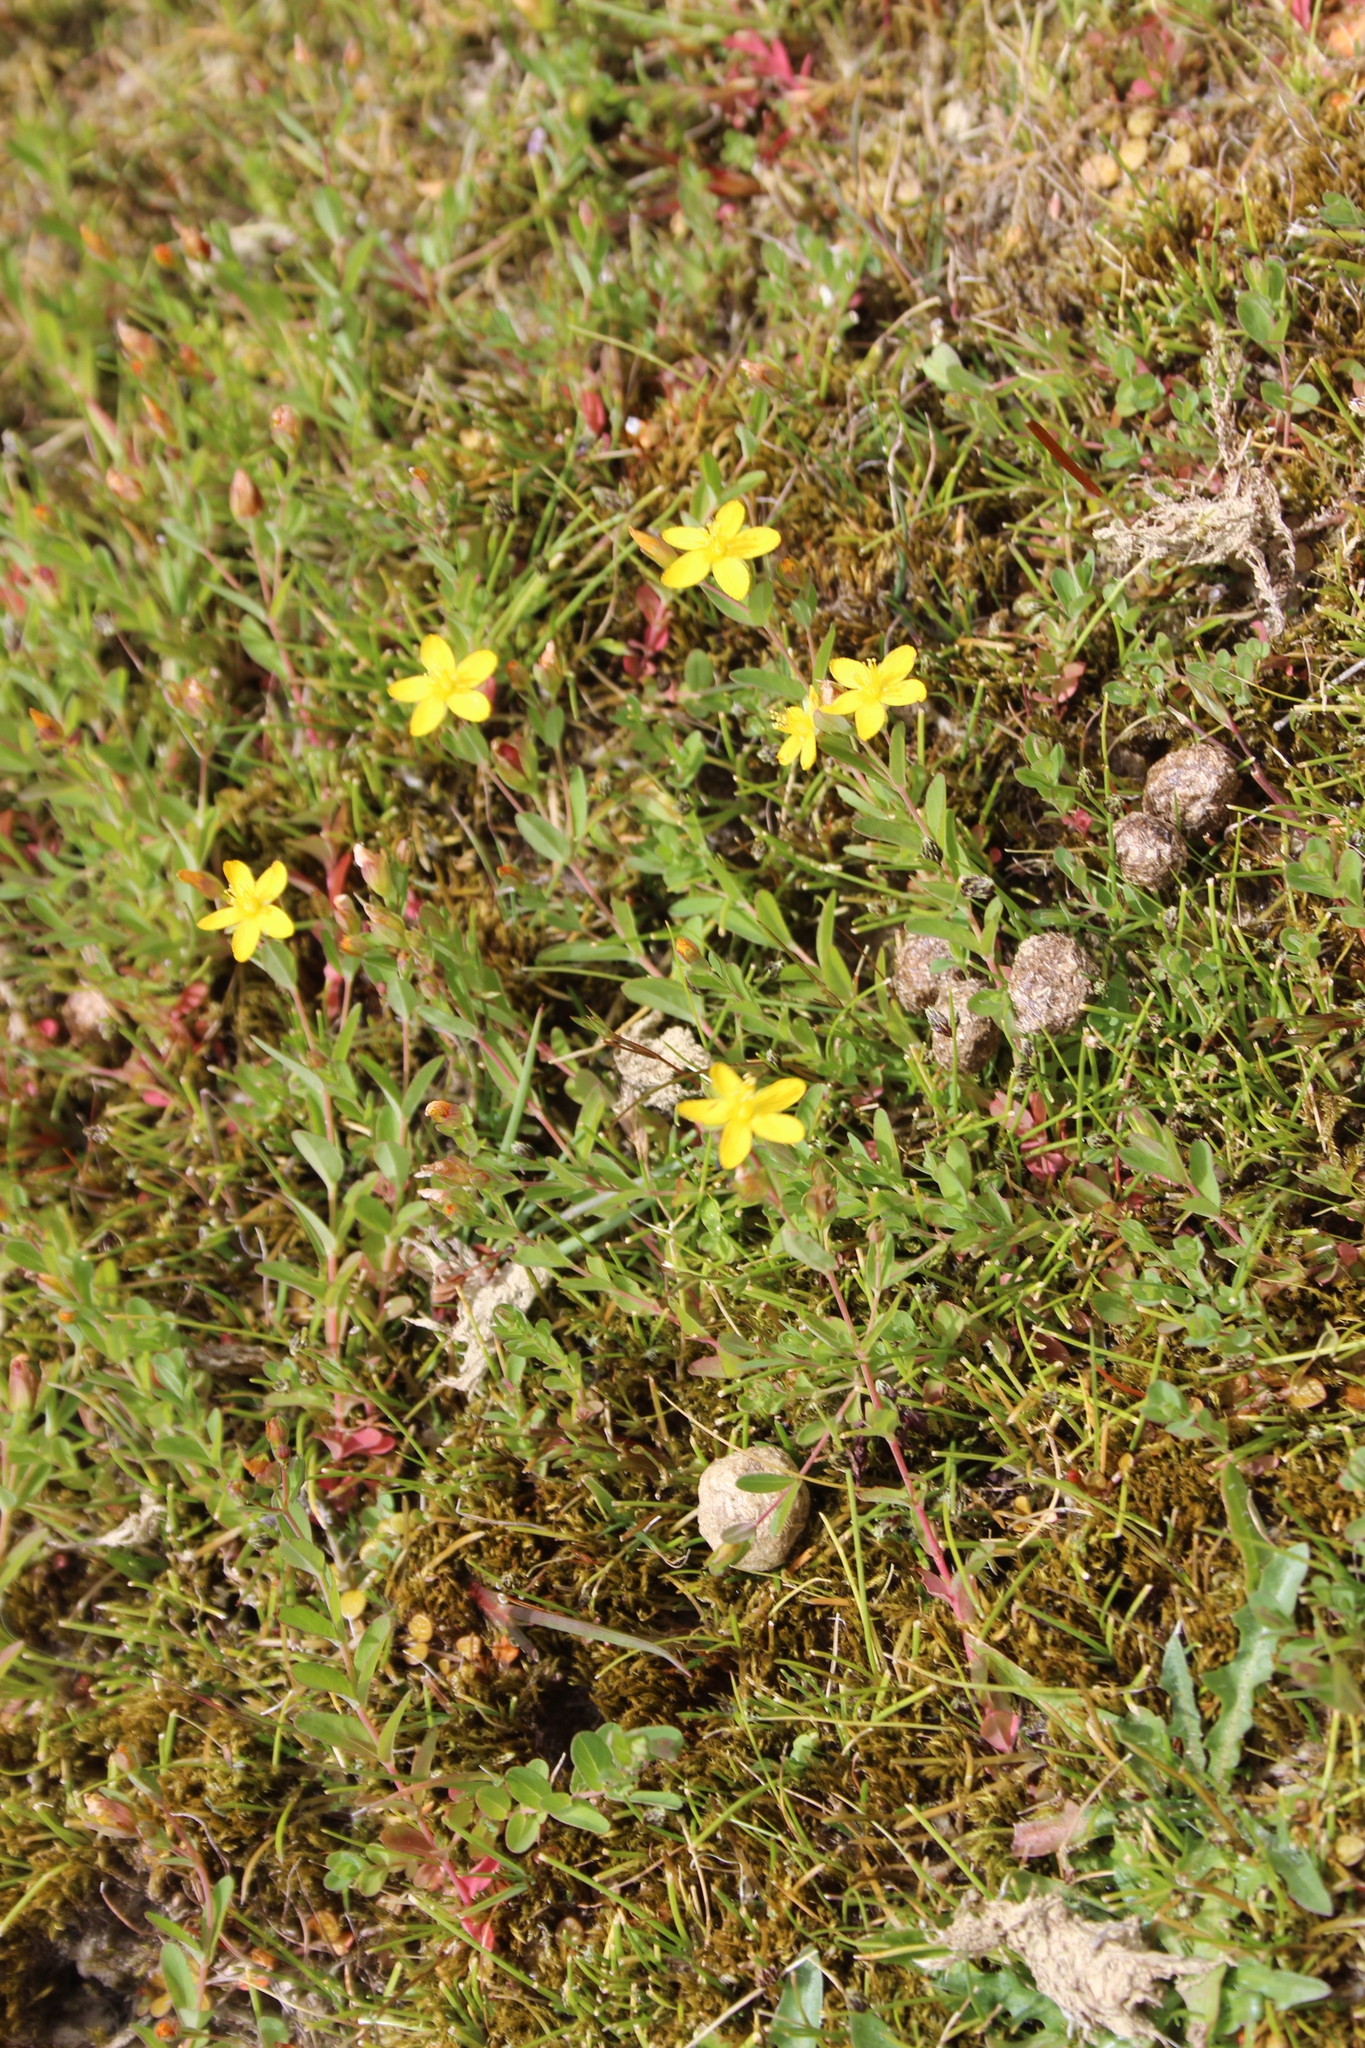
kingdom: Plantae
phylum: Tracheophyta
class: Magnoliopsida
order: Malpighiales
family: Hypericaceae
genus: Hypericum
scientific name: Hypericum humifusum
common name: Trailing st. john's-wort
